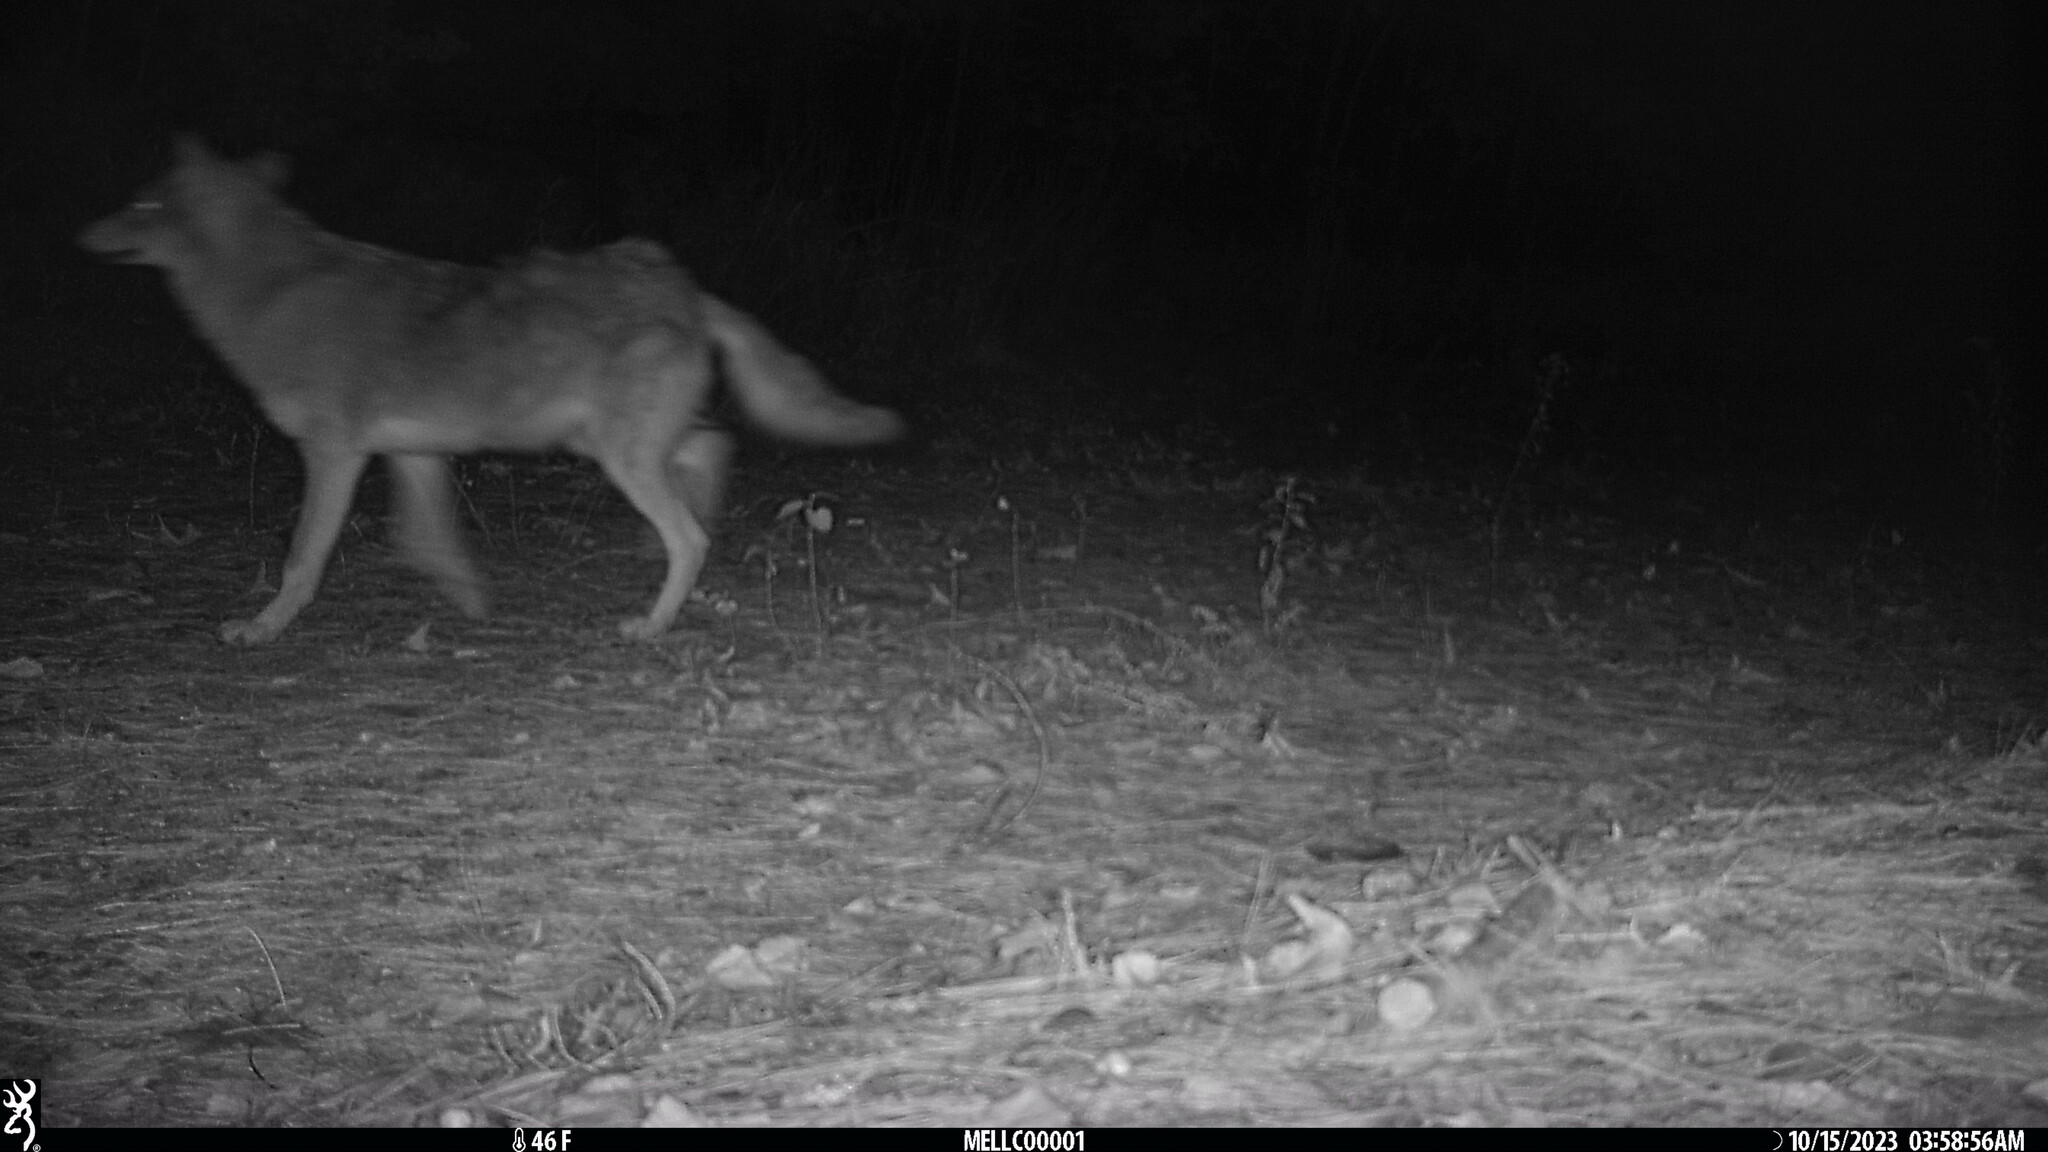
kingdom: Animalia
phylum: Chordata
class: Mammalia
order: Carnivora
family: Canidae
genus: Canis
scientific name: Canis latrans
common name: Coyote
